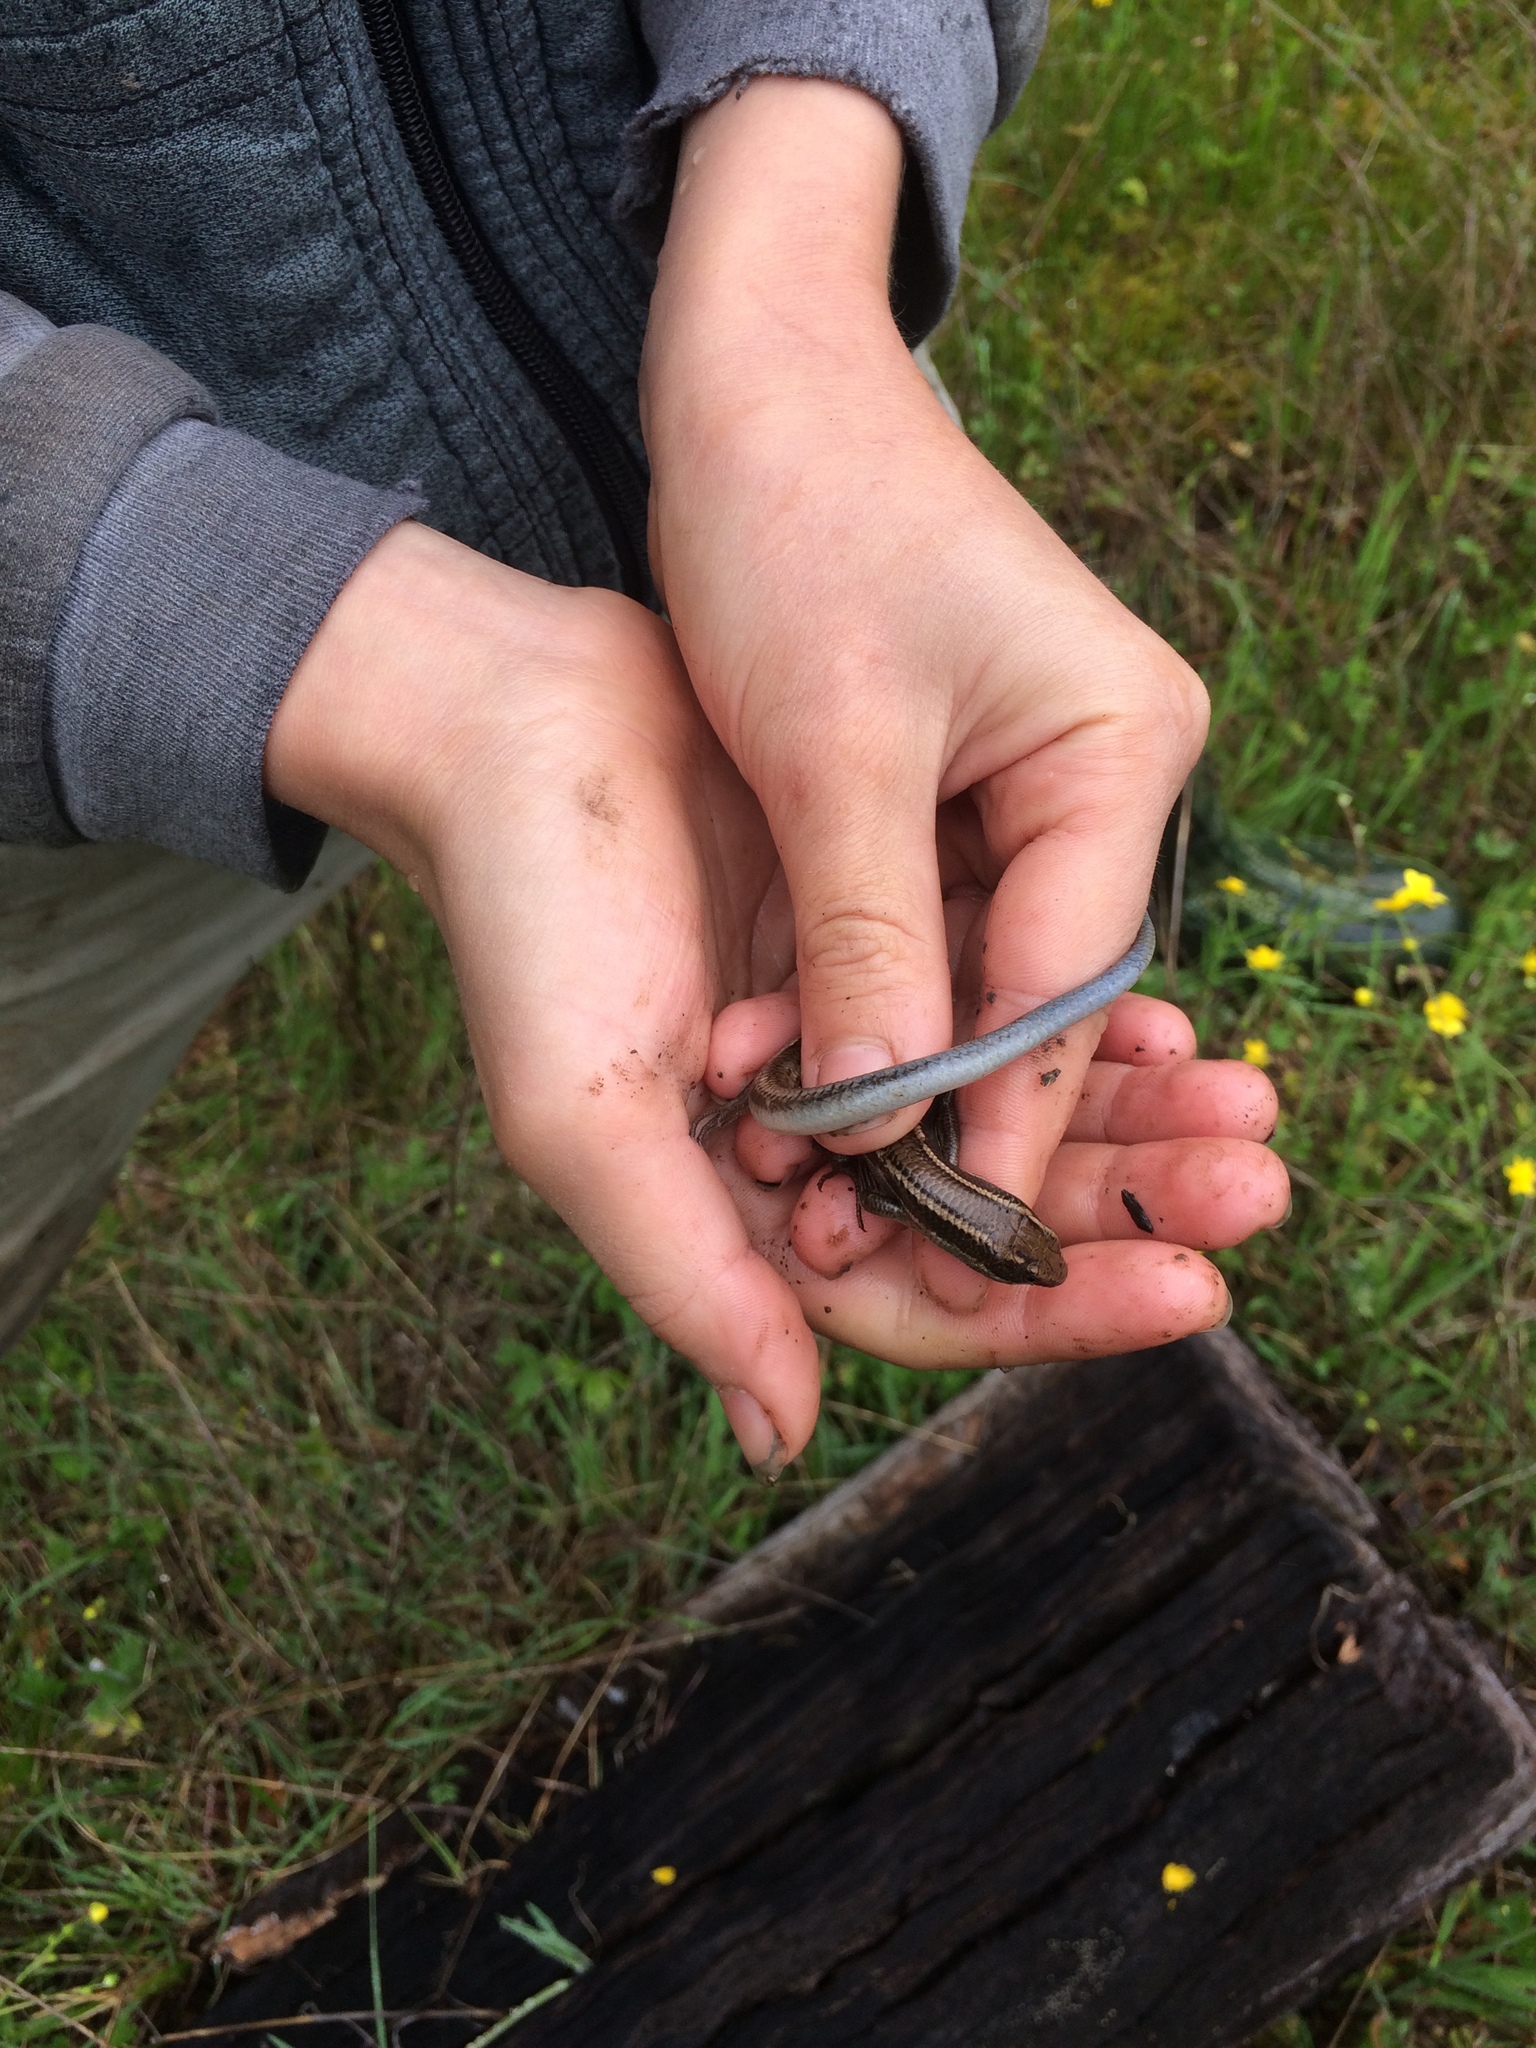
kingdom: Animalia
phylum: Chordata
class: Squamata
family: Scincidae
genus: Plestiodon
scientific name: Plestiodon skiltonianus
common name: Coronado island skink [interparietalis]
